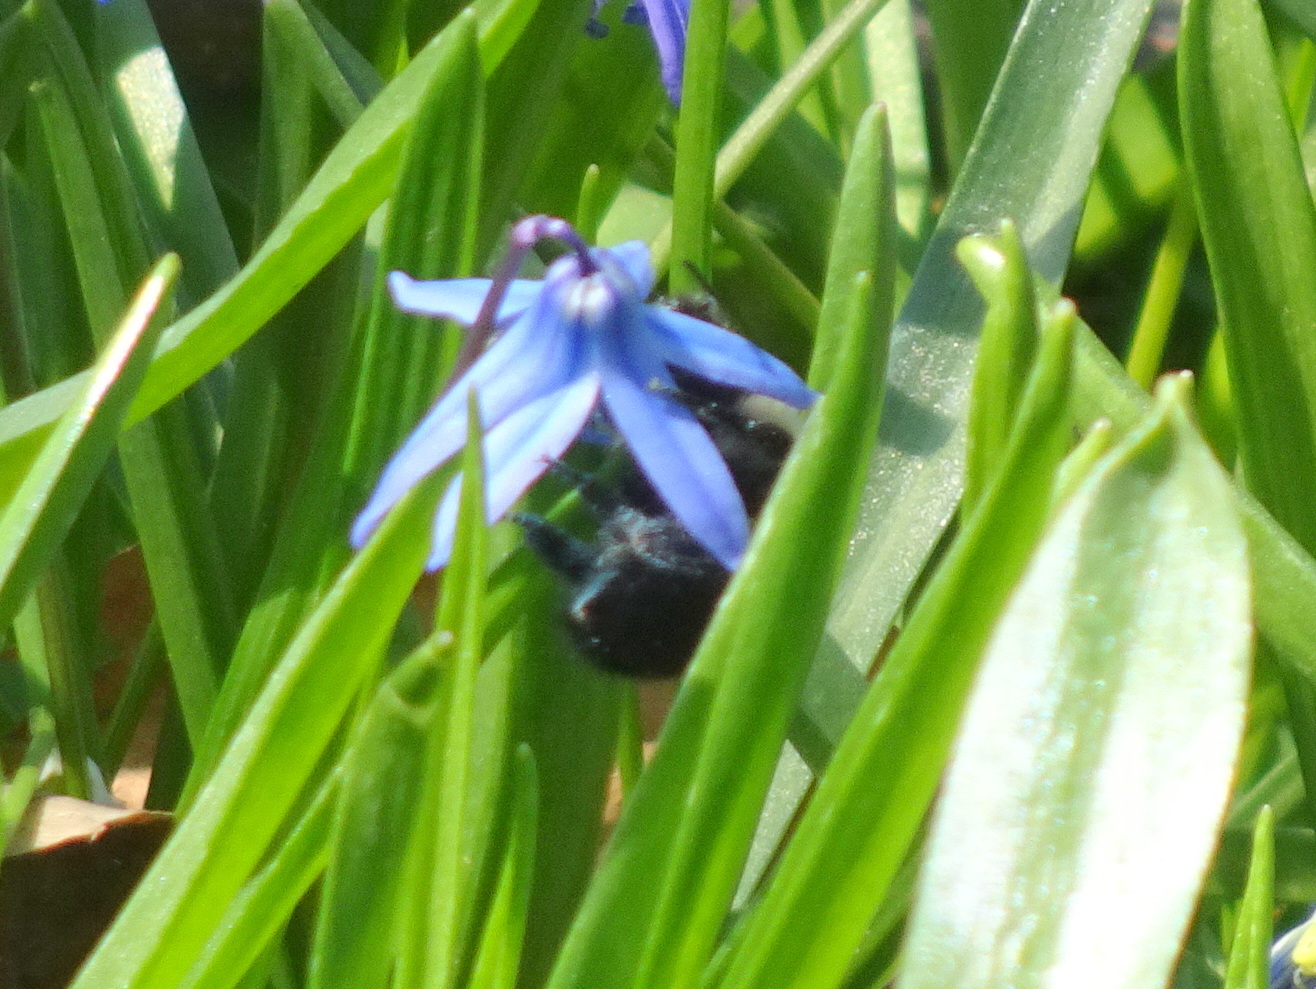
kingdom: Animalia
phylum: Arthropoda
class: Insecta
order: Hymenoptera
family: Apidae
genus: Bombus
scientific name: Bombus impatiens
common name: Common eastern bumble bee
